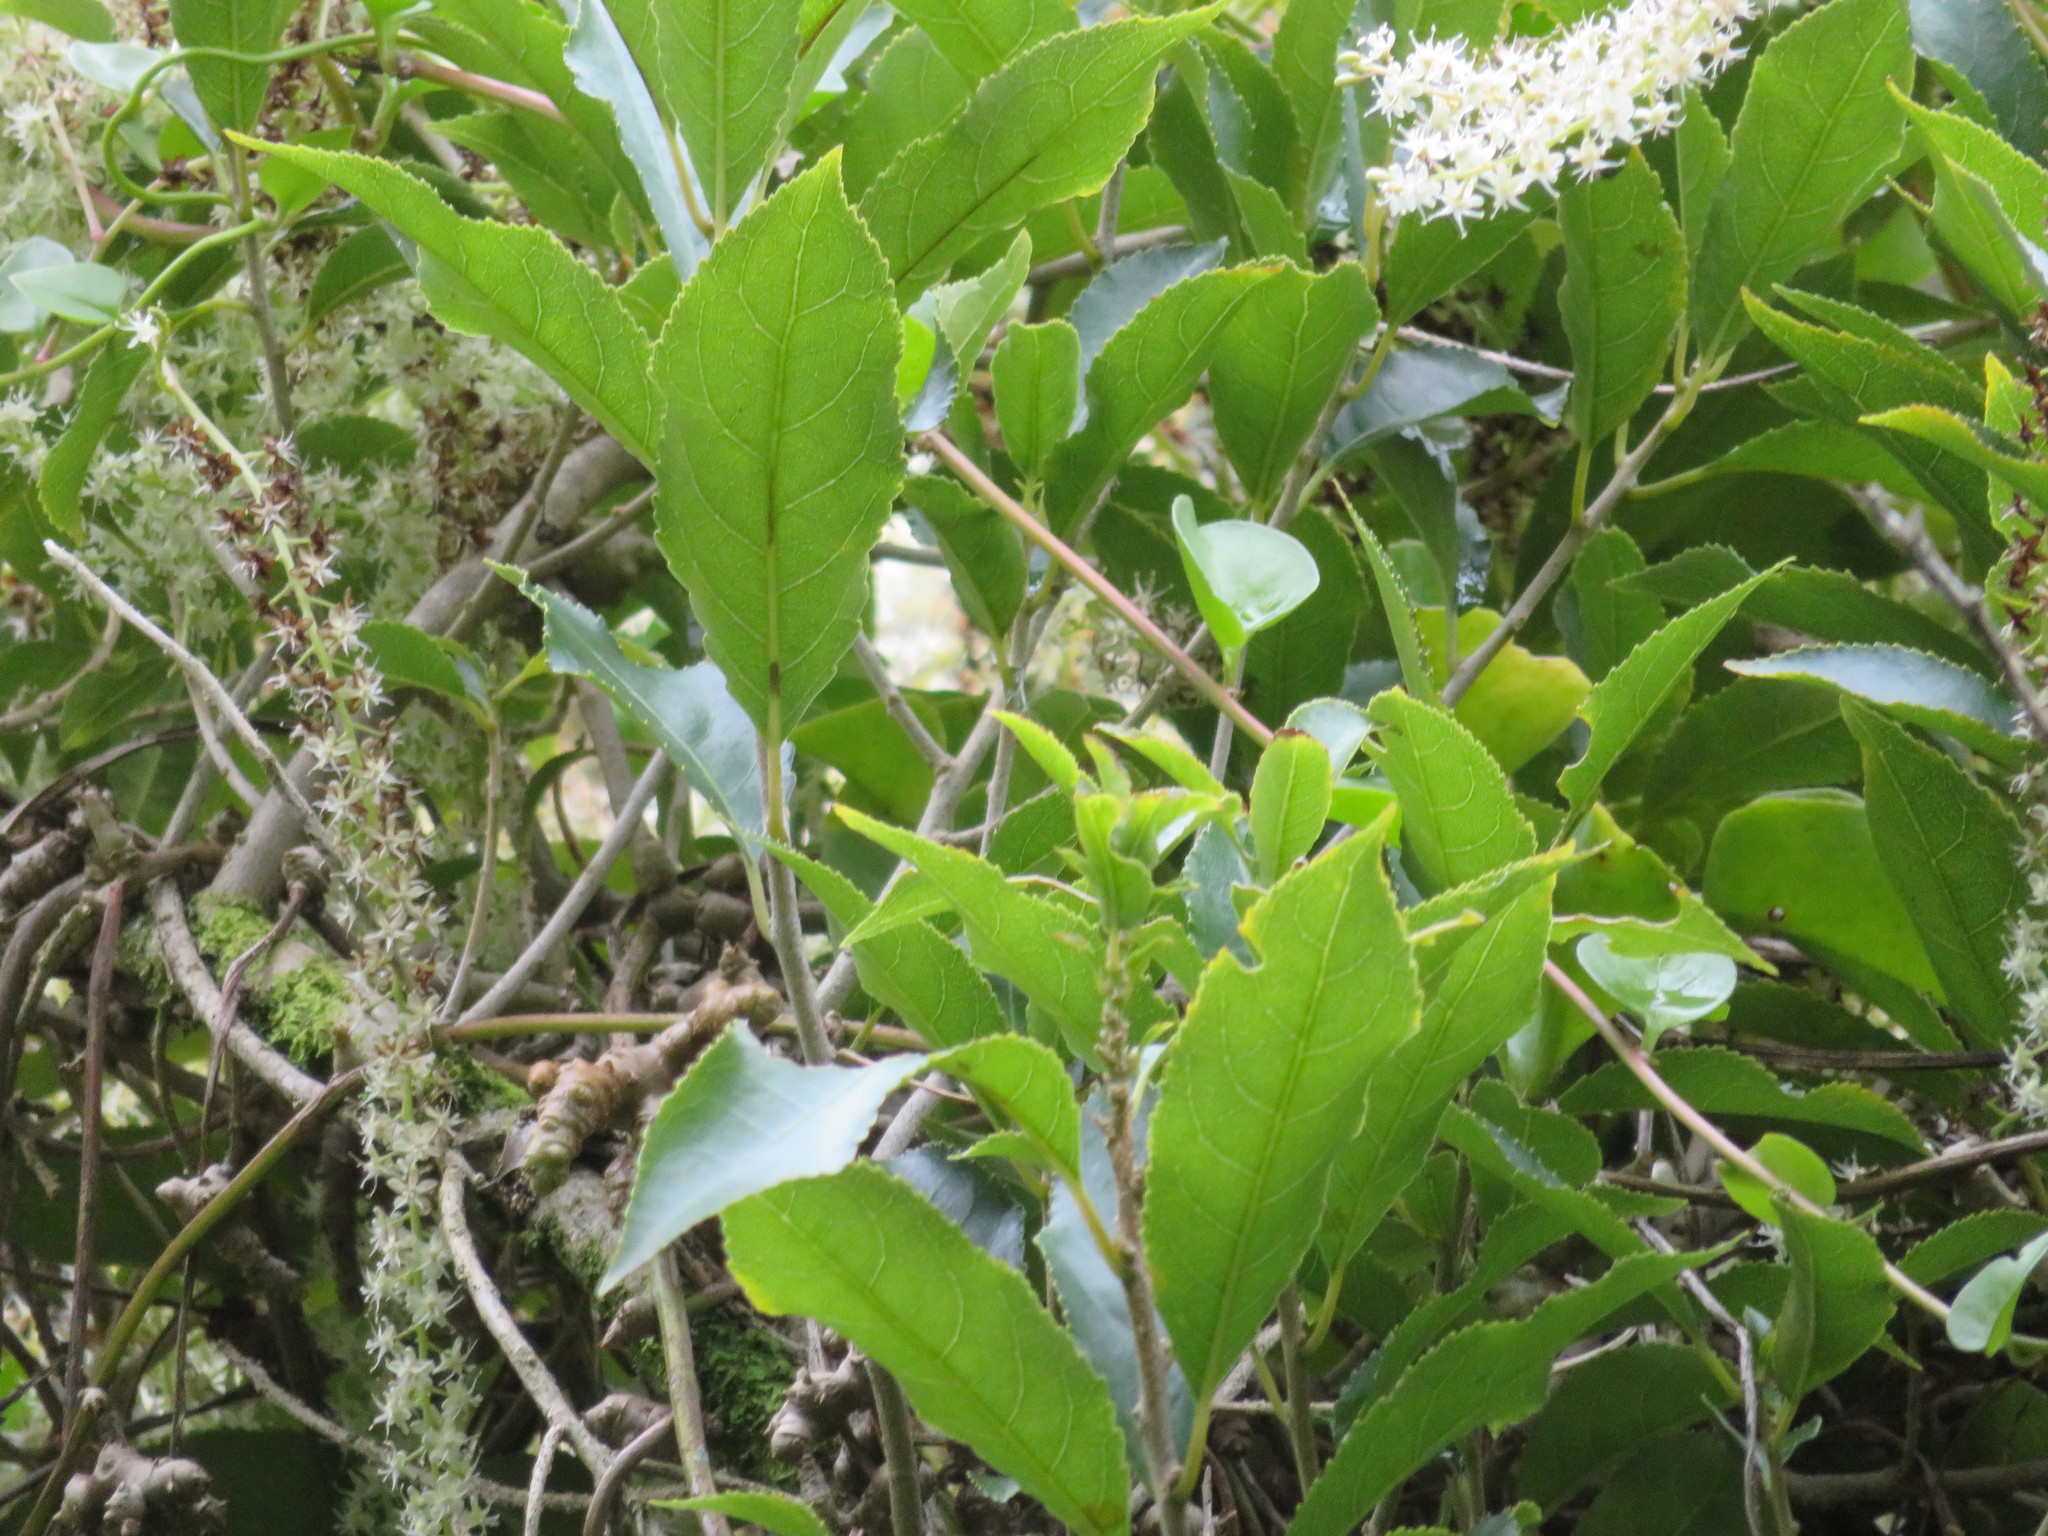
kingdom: Plantae
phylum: Tracheophyta
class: Magnoliopsida
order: Malpighiales
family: Violaceae
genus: Melicytus
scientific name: Melicytus ramiflorus
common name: Mahoe
